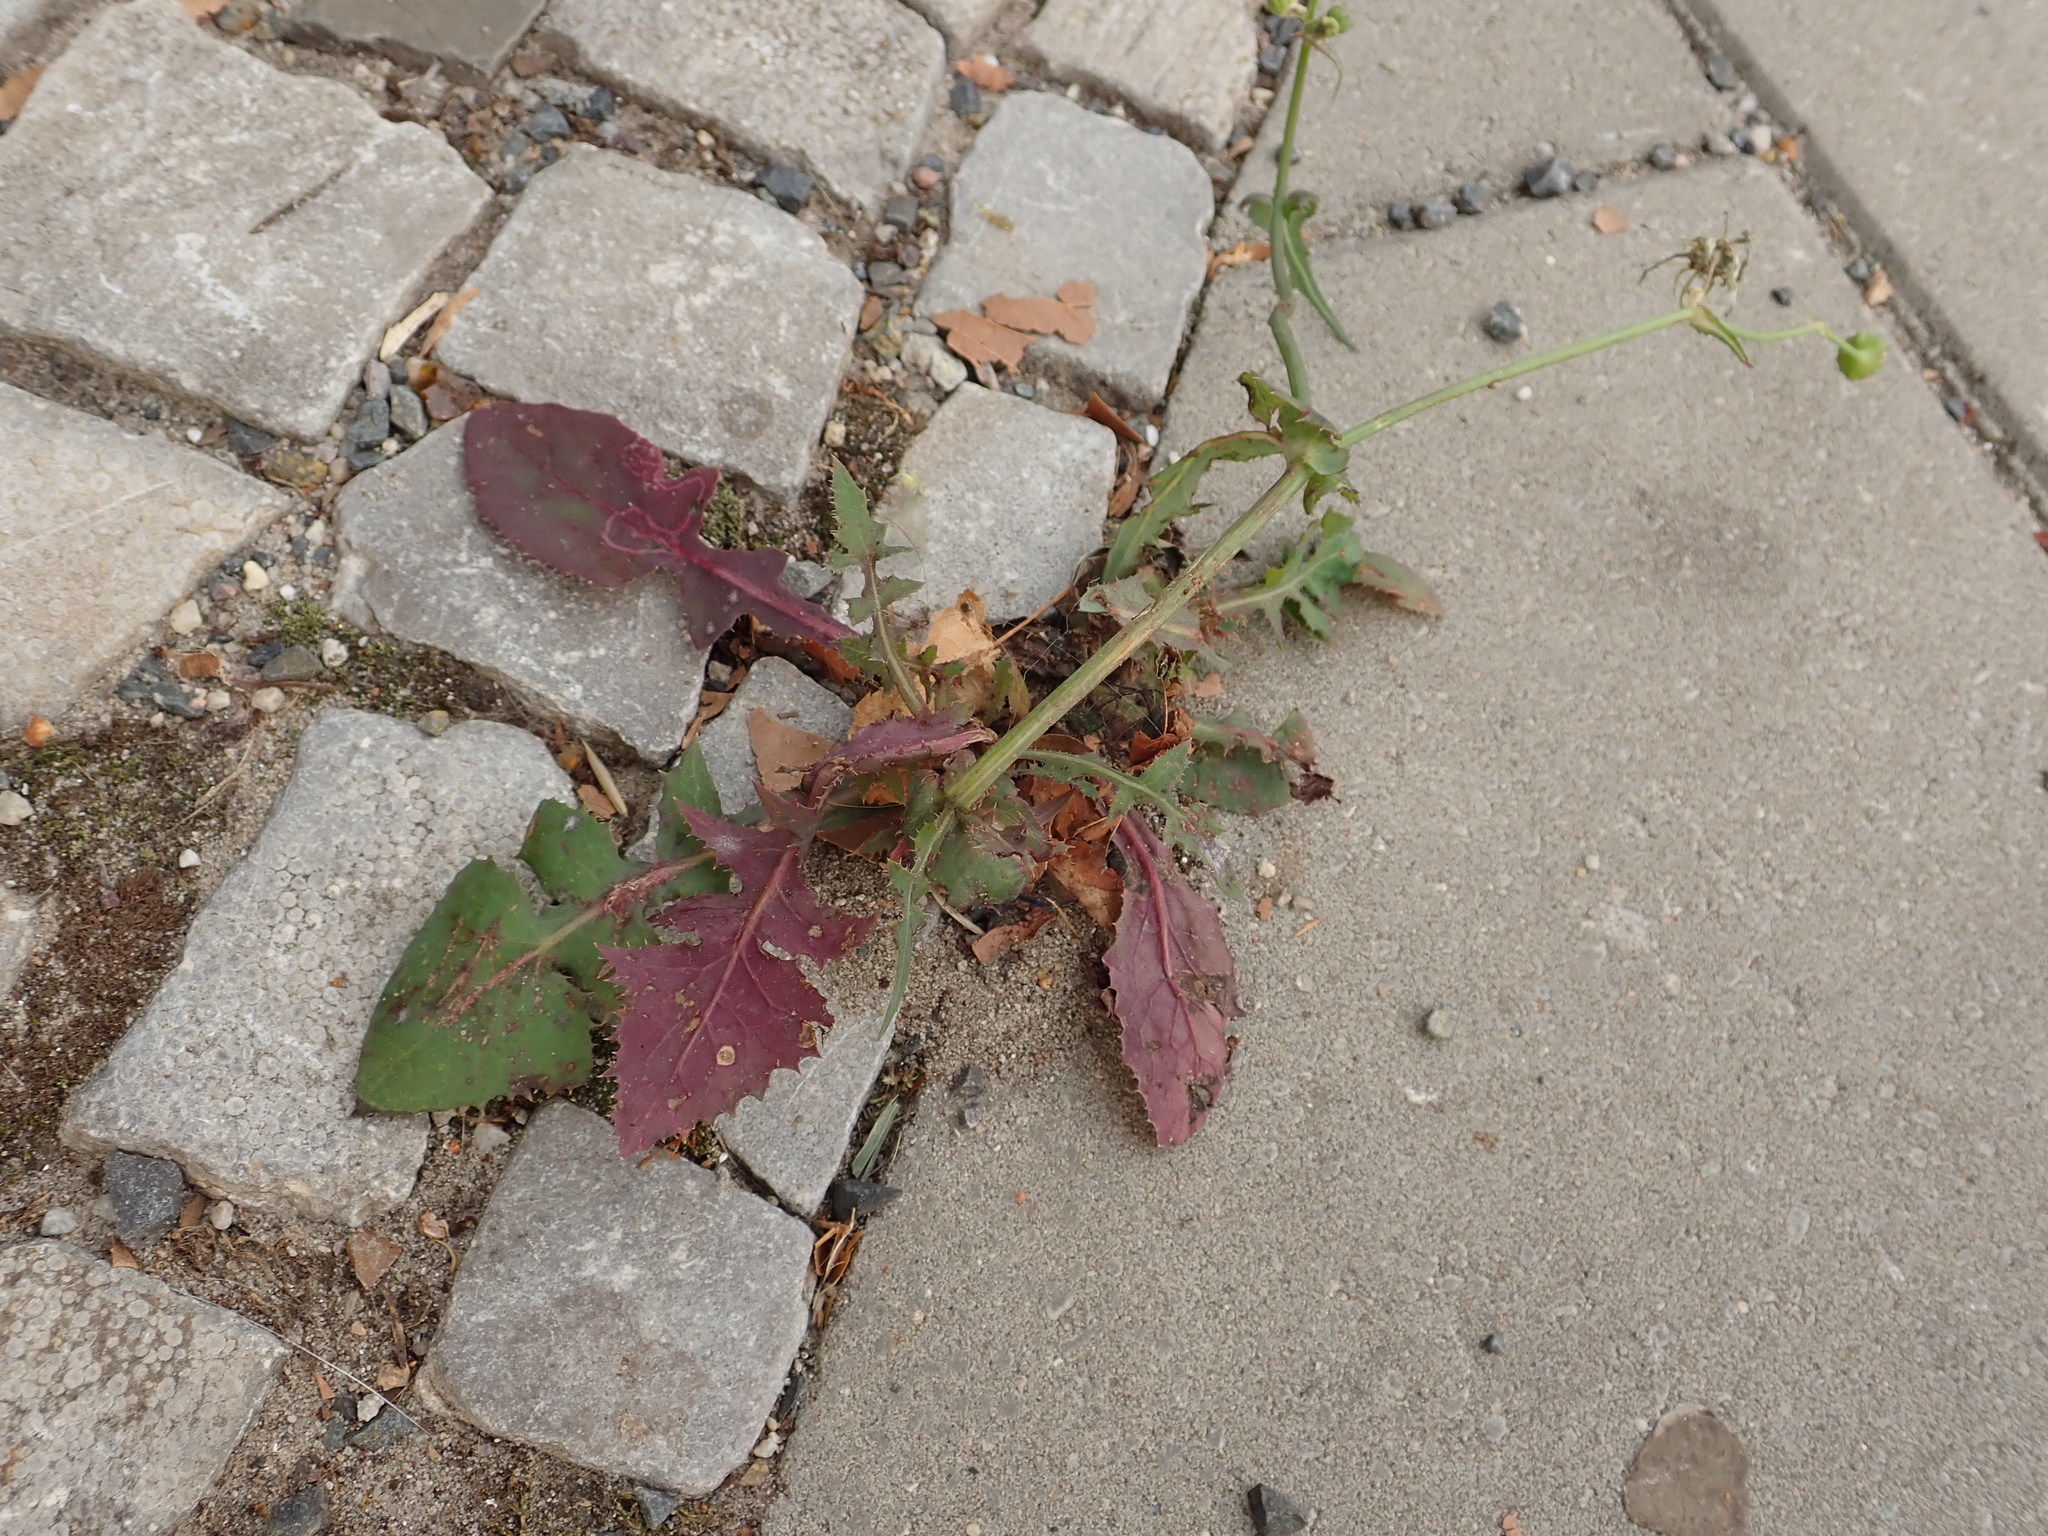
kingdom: Plantae
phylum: Tracheophyta
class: Magnoliopsida
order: Asterales
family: Asteraceae
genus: Sonchus
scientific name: Sonchus oleraceus
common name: Common sowthistle
